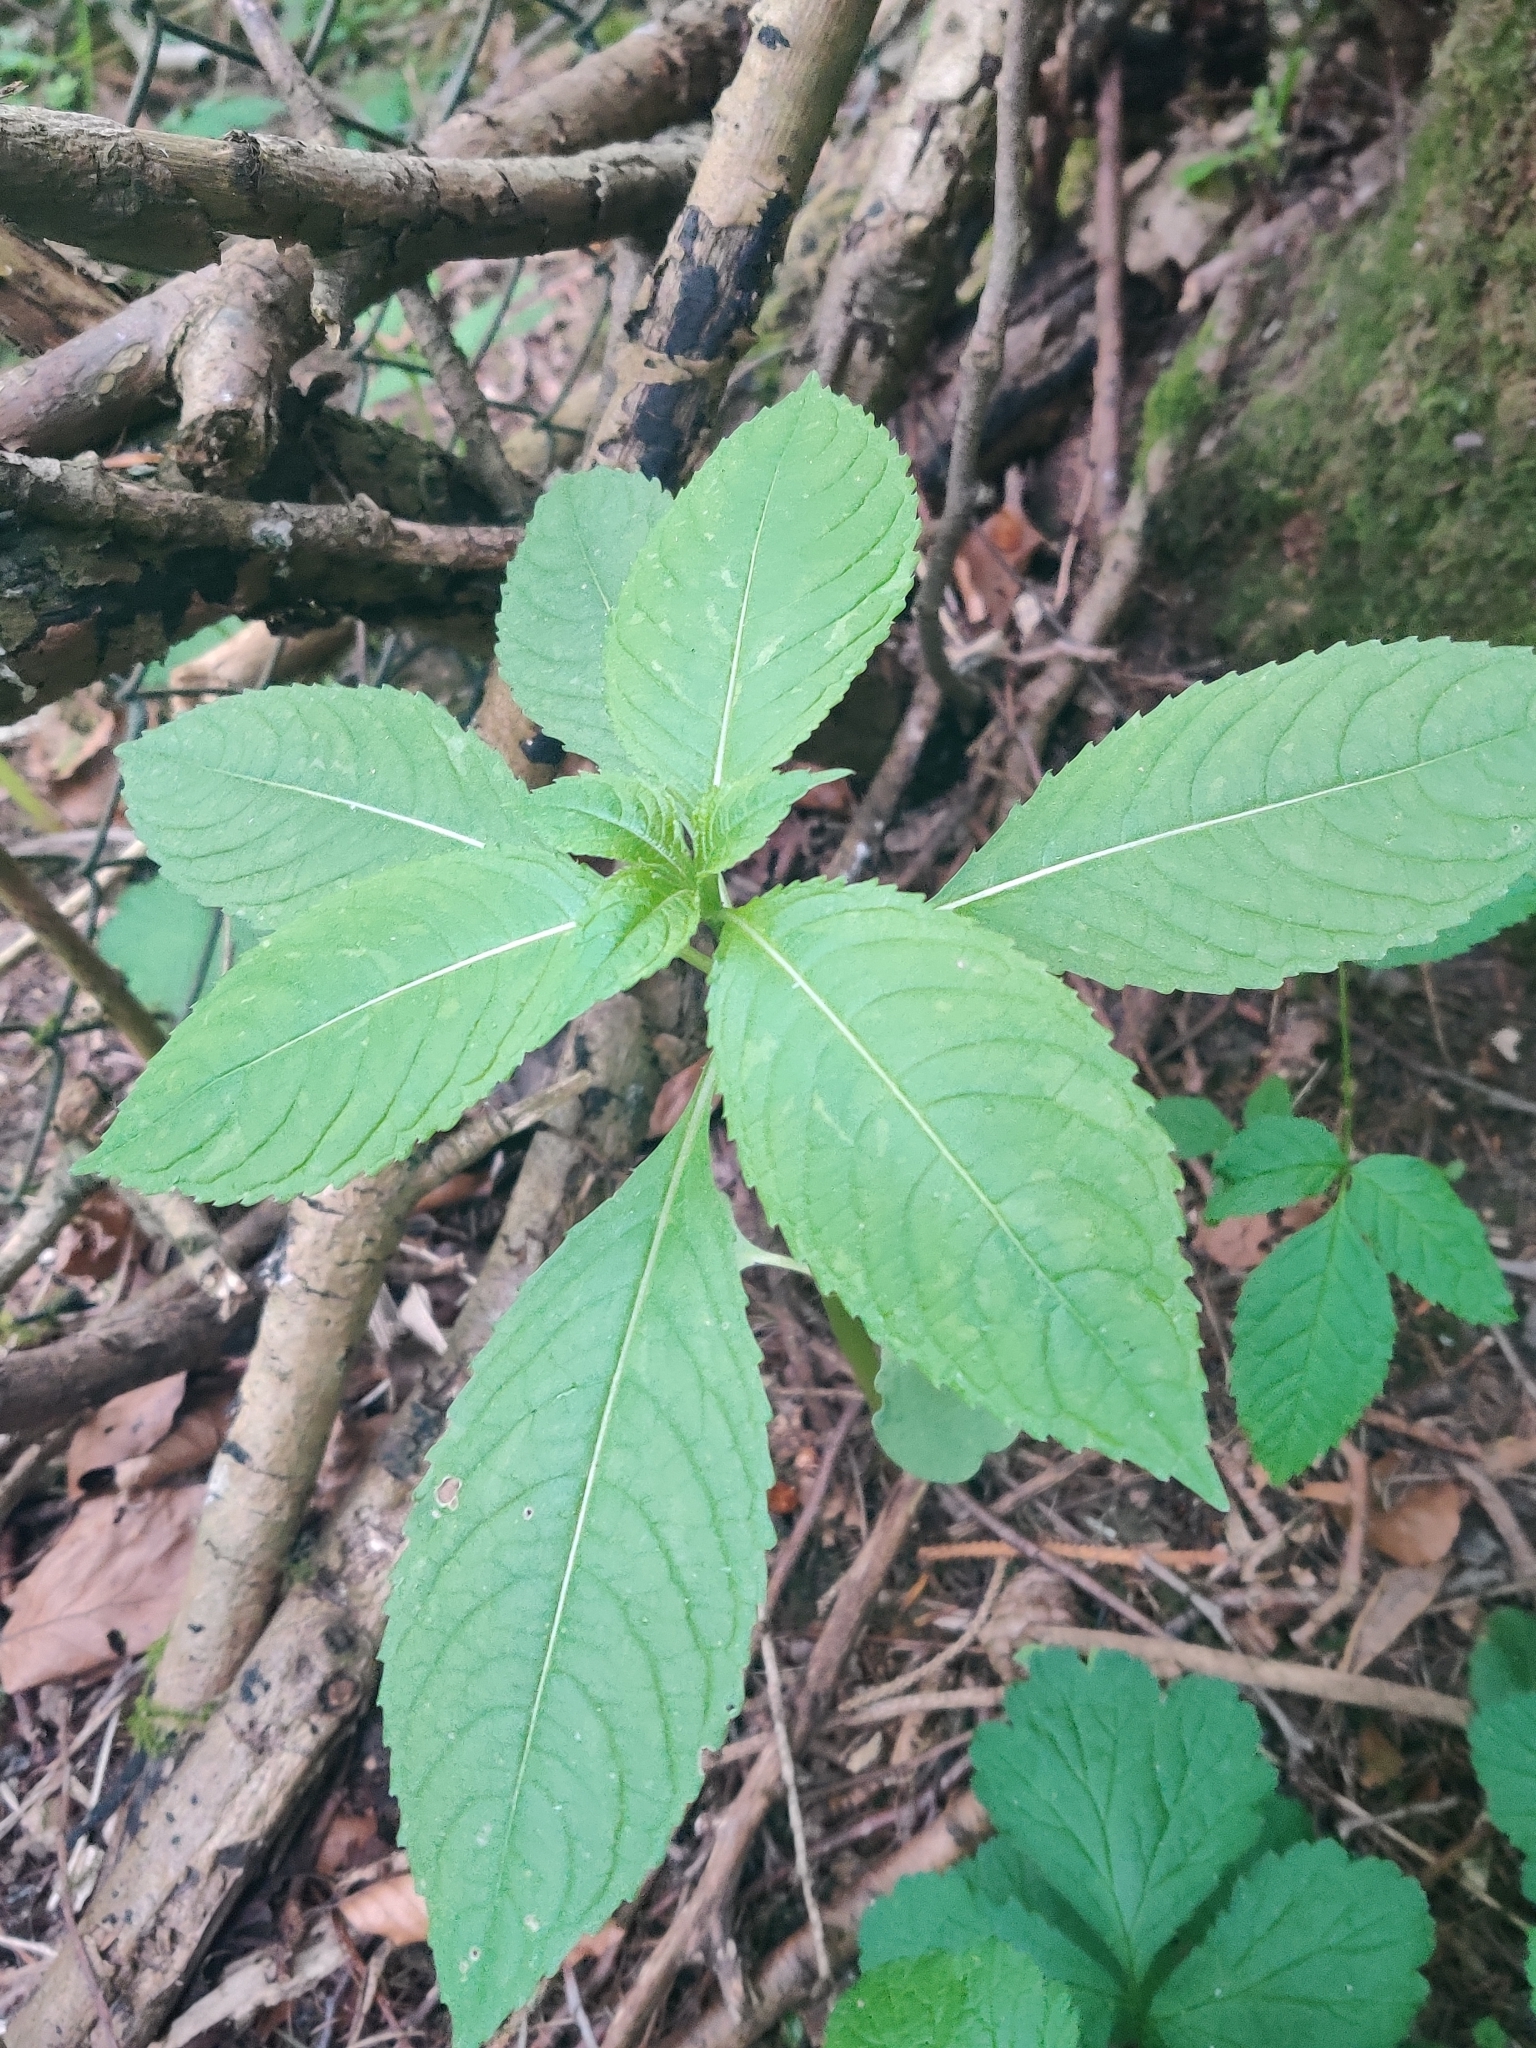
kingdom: Plantae
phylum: Tracheophyta
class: Magnoliopsida
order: Ericales
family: Balsaminaceae
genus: Impatiens
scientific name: Impatiens glandulifera
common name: Himalayan balsam
